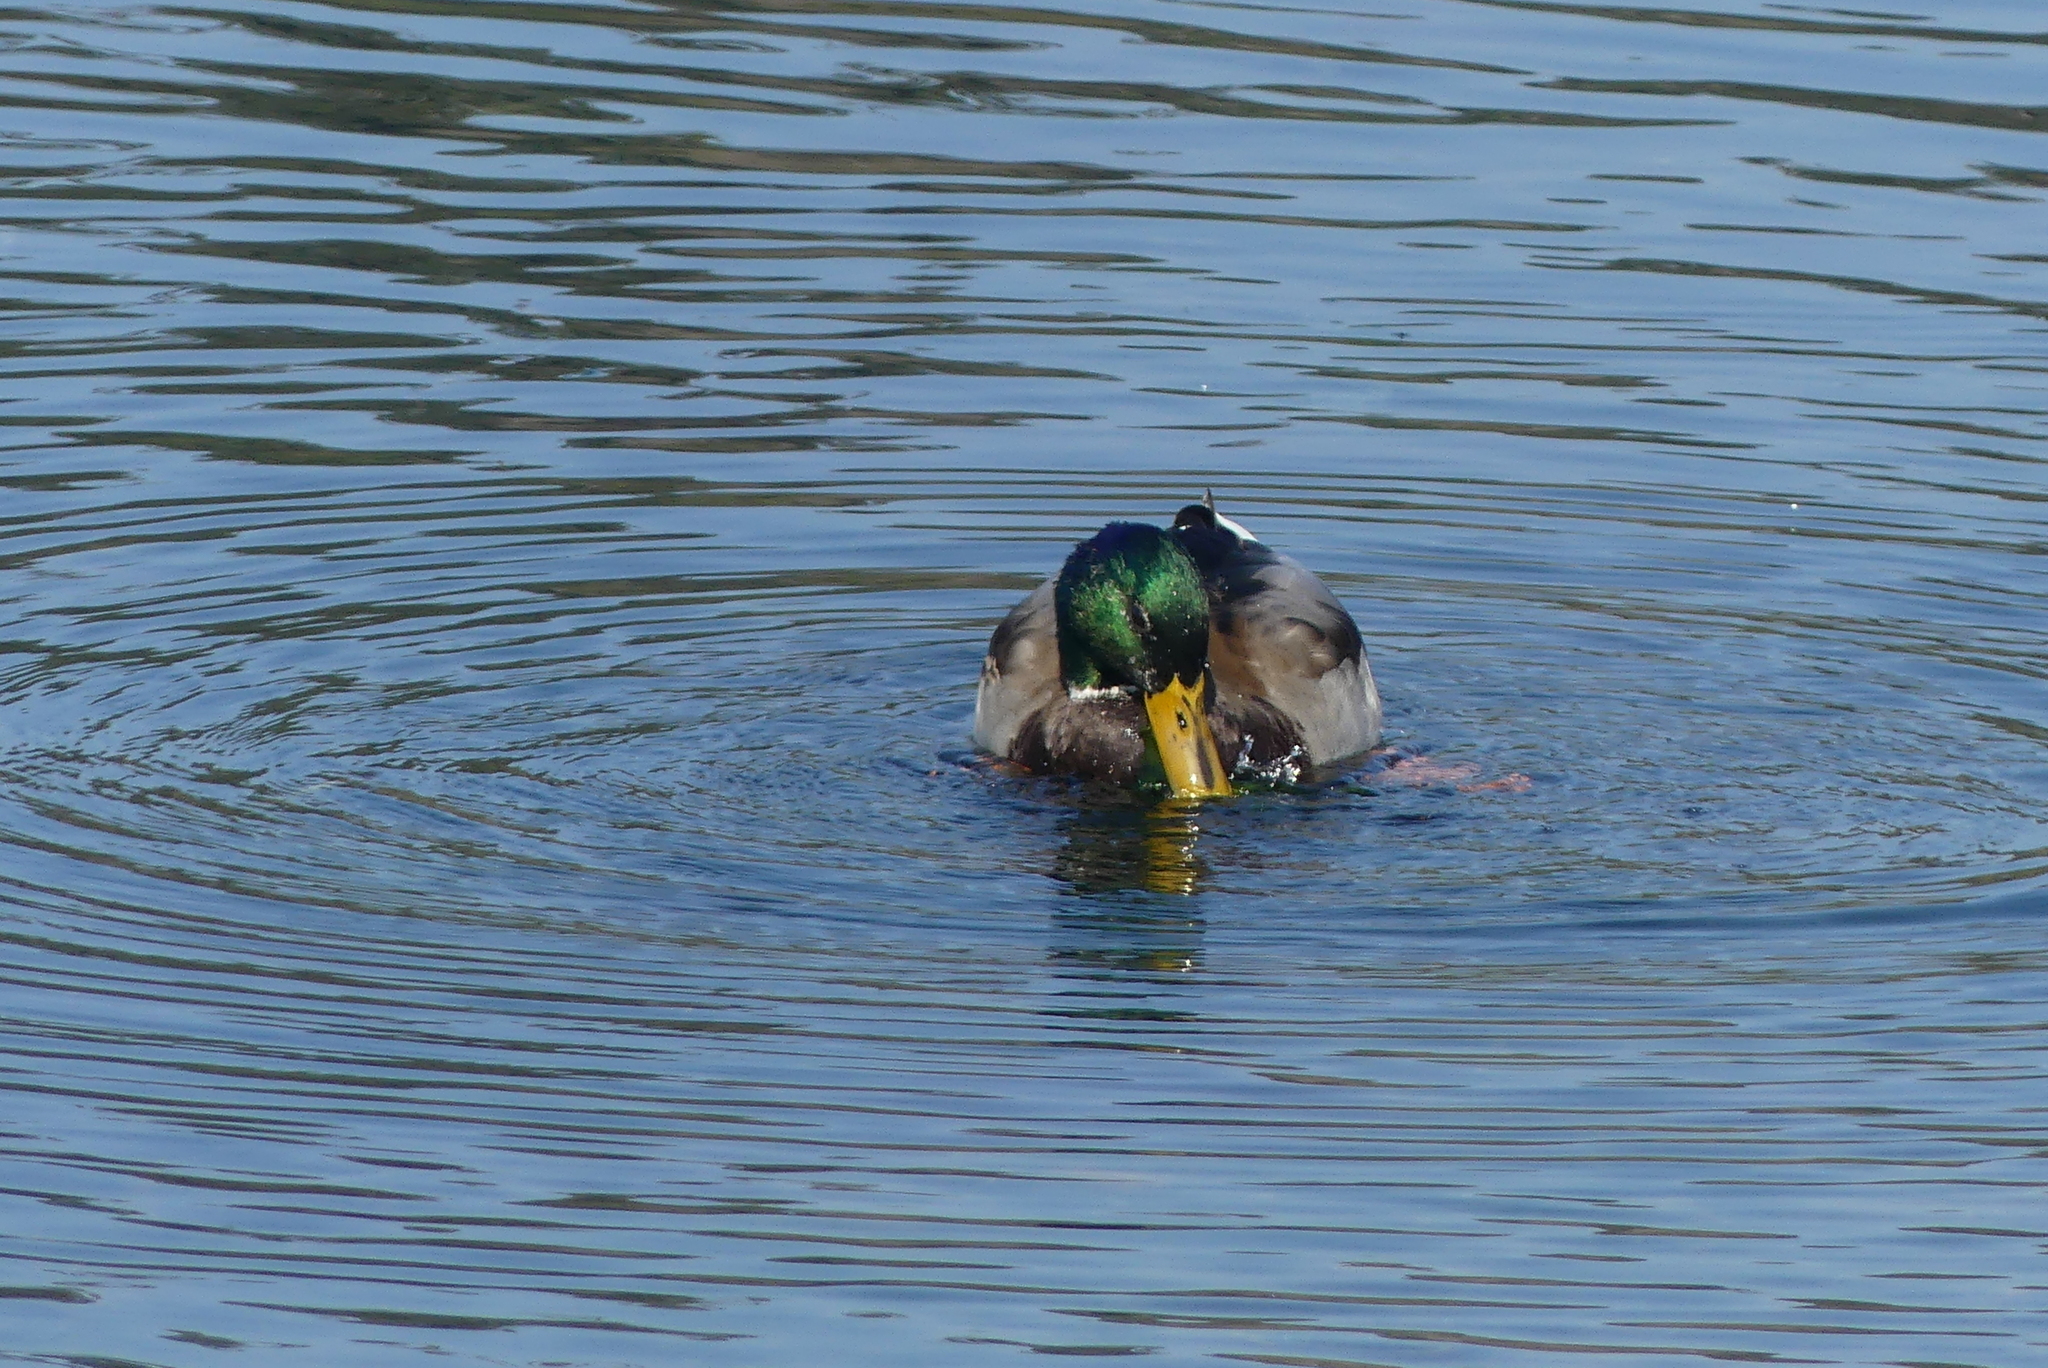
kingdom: Animalia
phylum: Chordata
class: Aves
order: Anseriformes
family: Anatidae
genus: Anas
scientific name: Anas platyrhynchos
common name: Mallard
